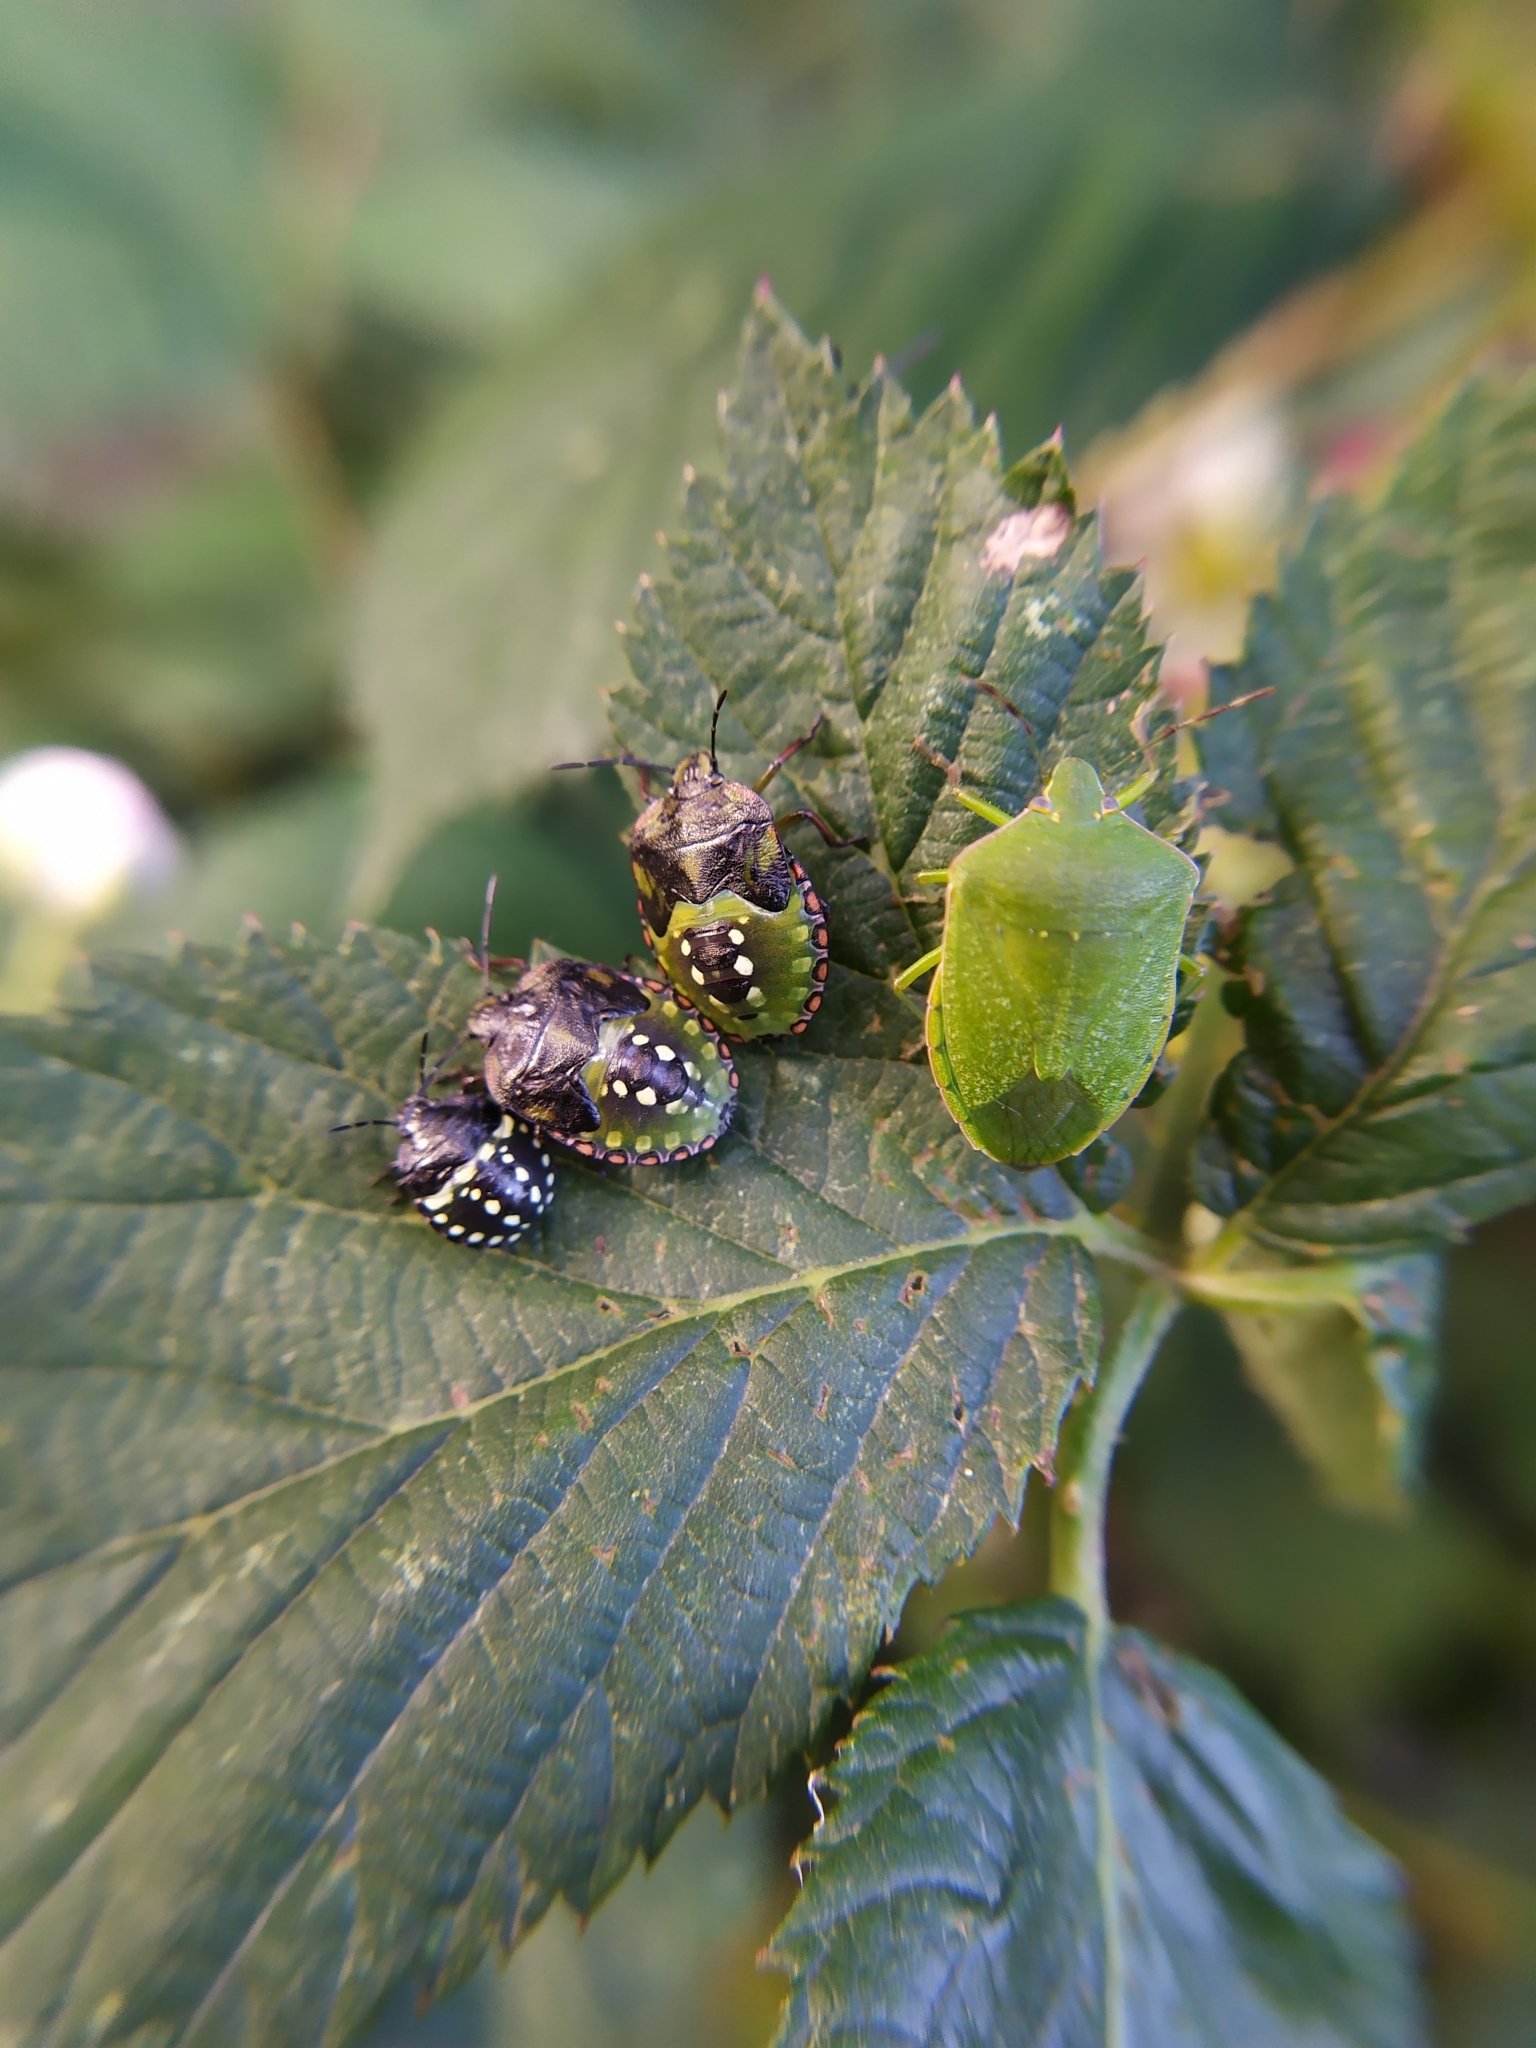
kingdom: Animalia
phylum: Arthropoda
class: Insecta
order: Hemiptera
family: Pentatomidae
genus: Nezara
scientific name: Nezara viridula
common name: Southern green stink bug
